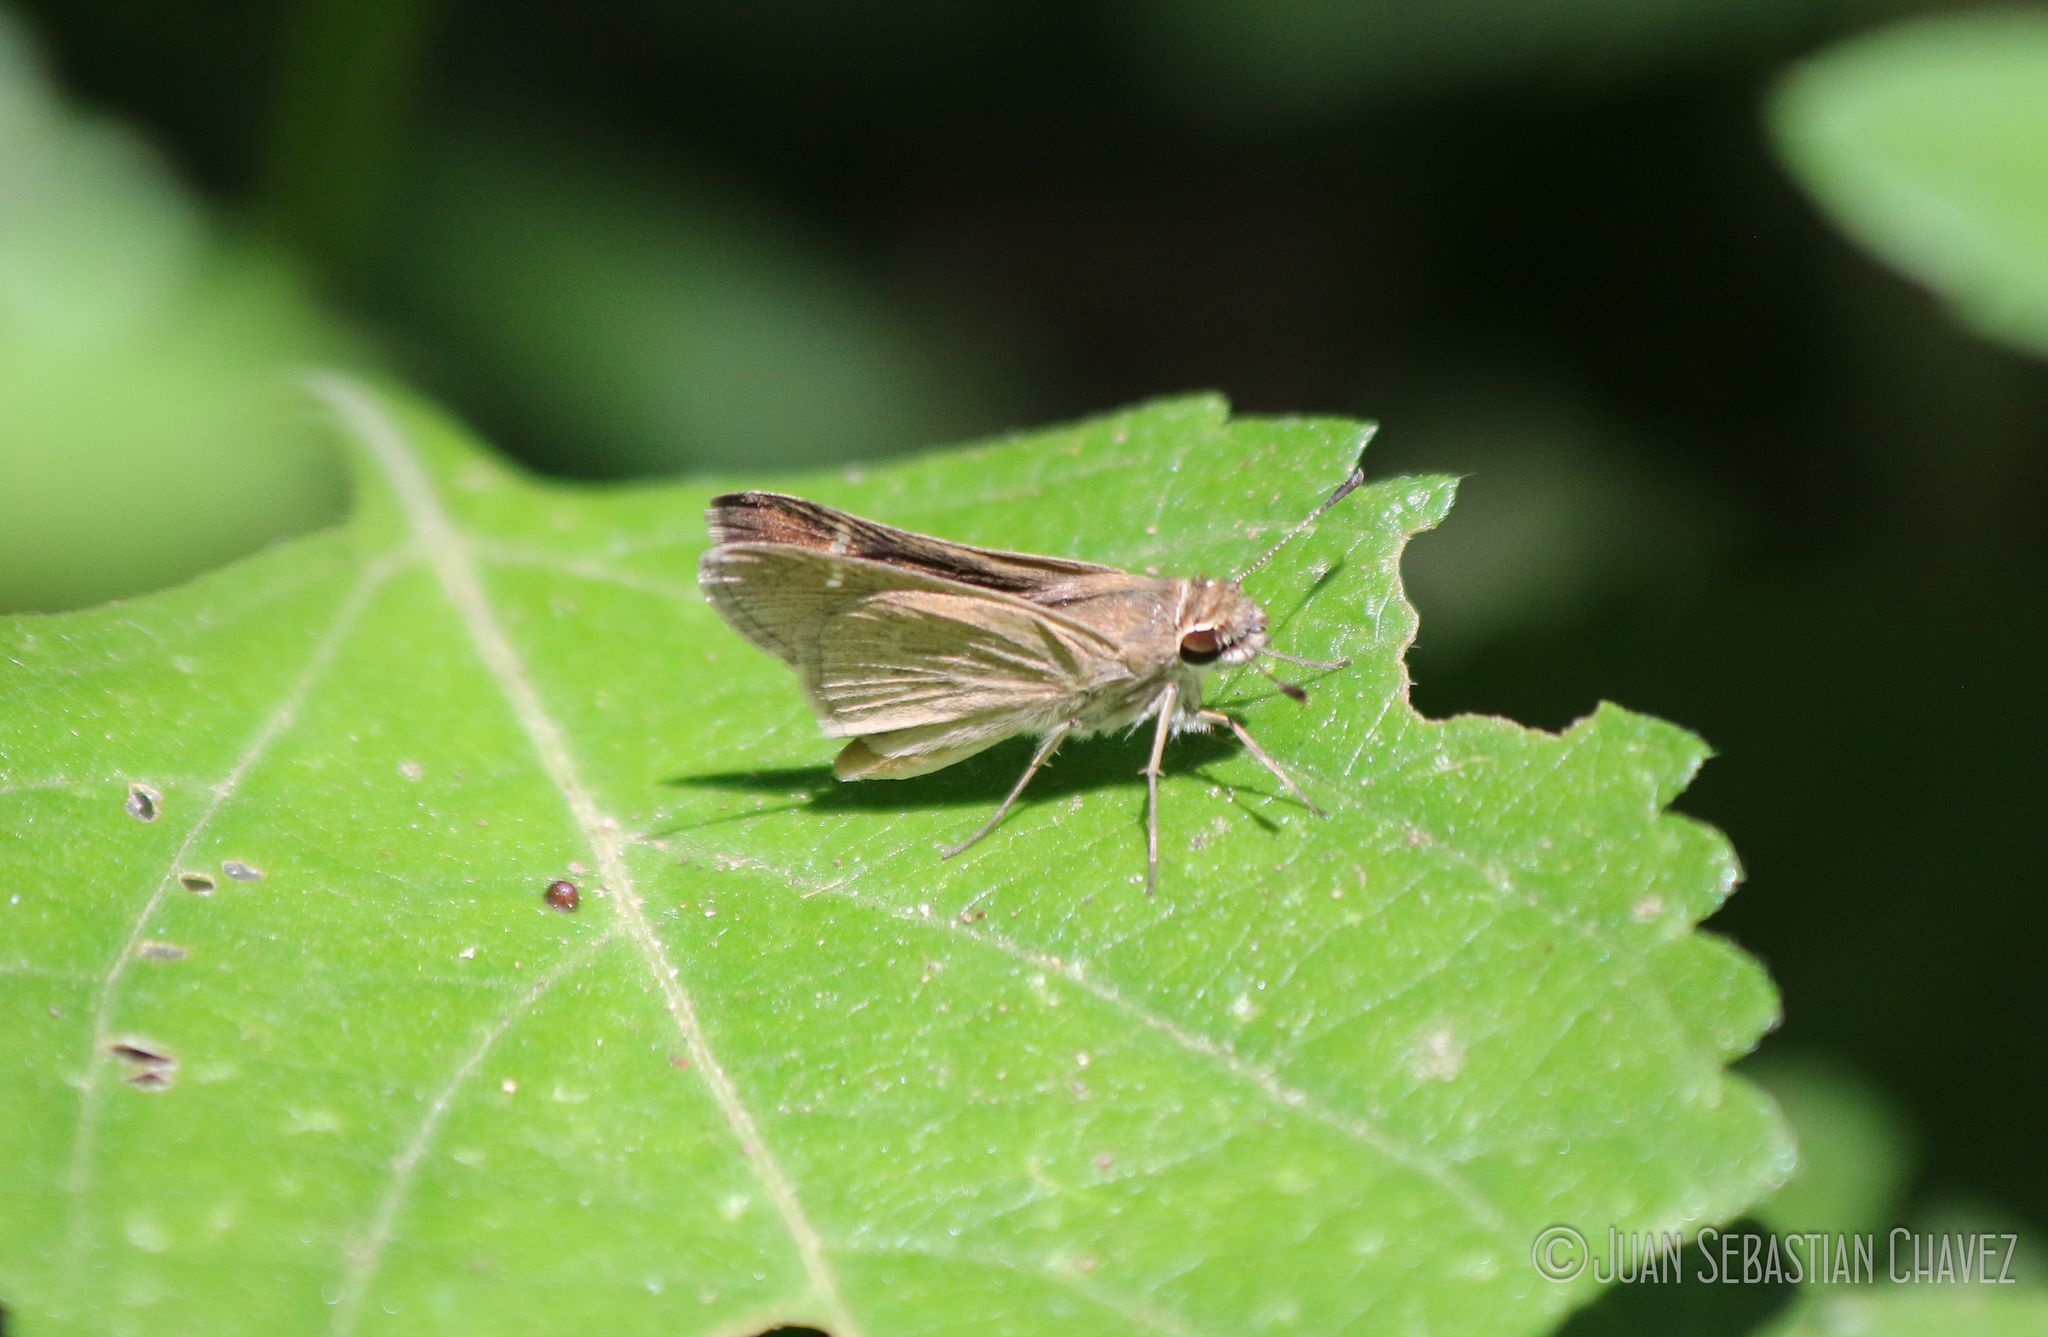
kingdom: Animalia
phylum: Arthropoda
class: Insecta
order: Lepidoptera
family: Hesperiidae
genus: Lerodea
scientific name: Lerodea eufala
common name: Eufala skipper
